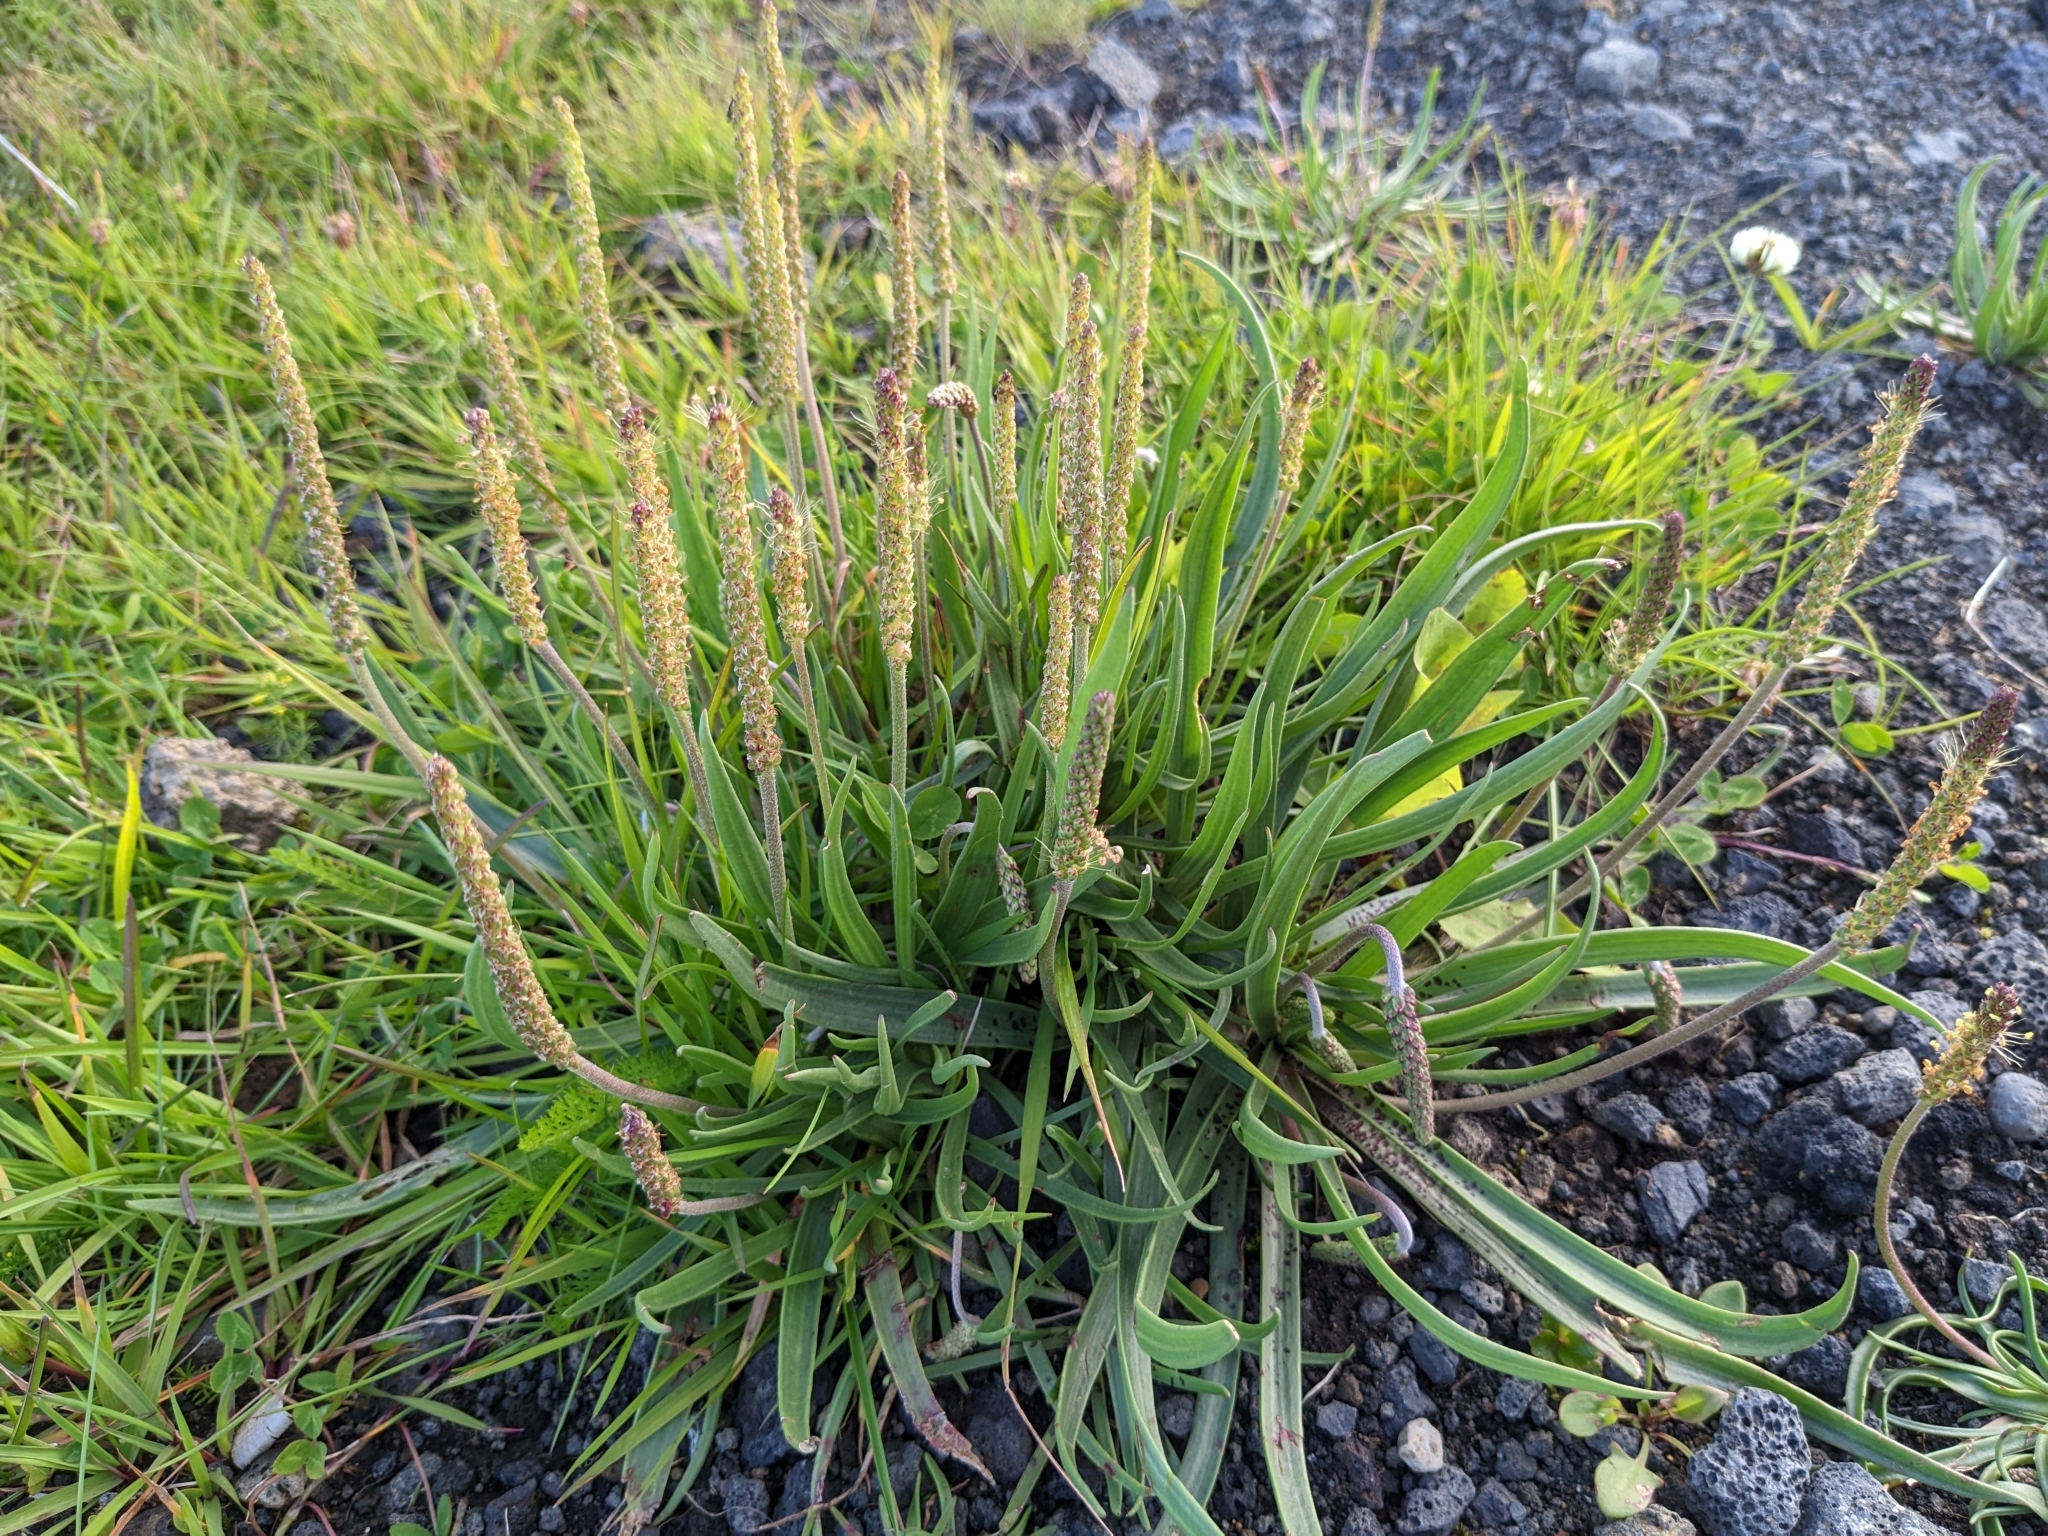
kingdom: Plantae
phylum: Tracheophyta
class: Magnoliopsida
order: Lamiales
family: Plantaginaceae
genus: Plantago
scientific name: Plantago maritima
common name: Sea plantain
